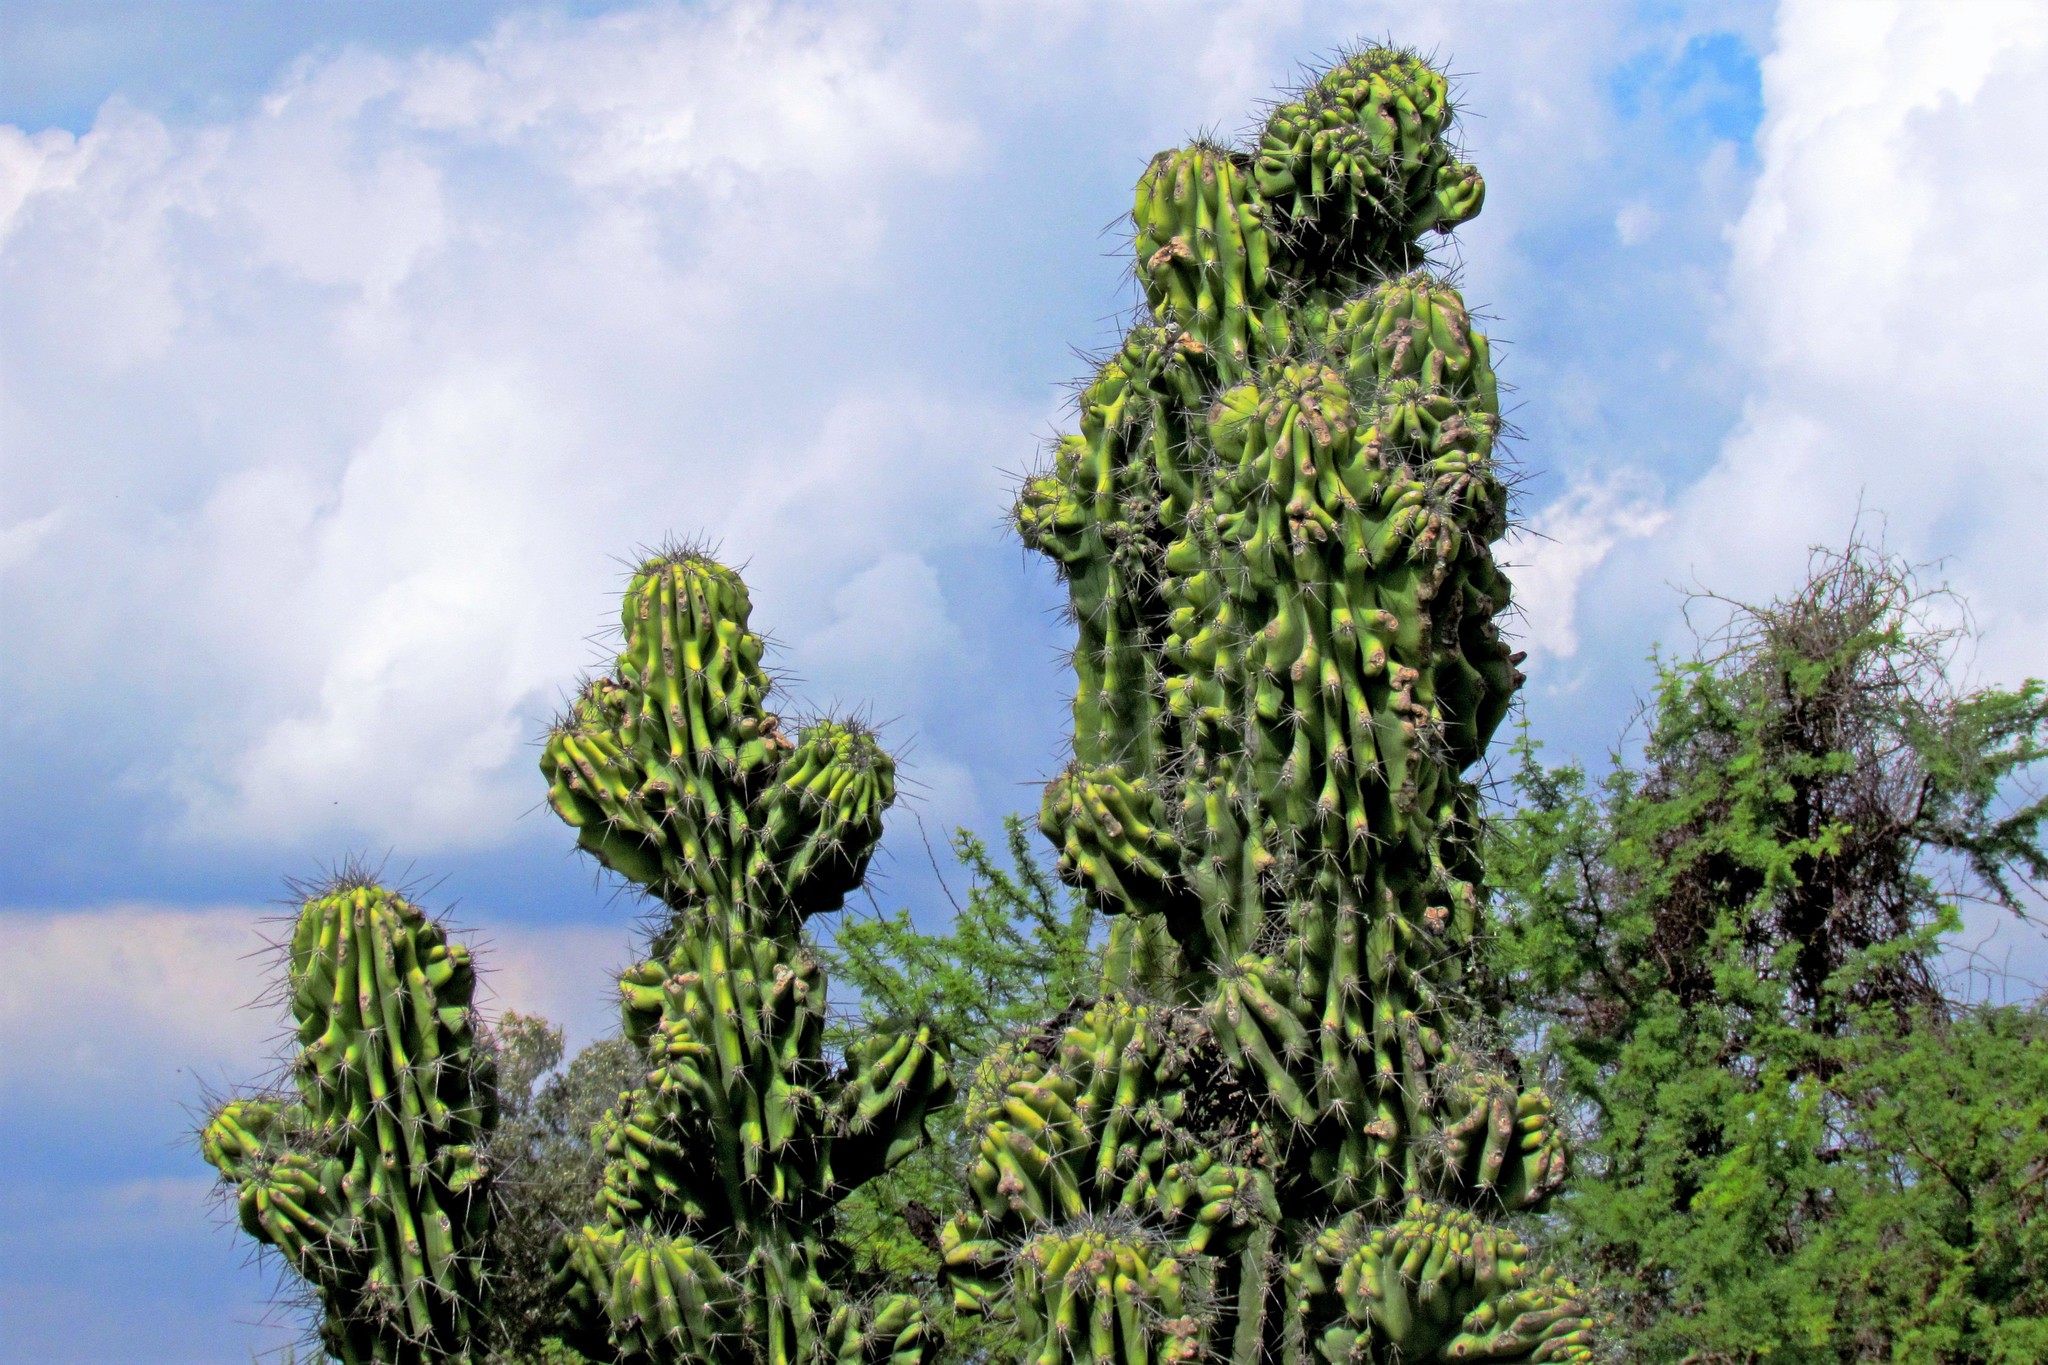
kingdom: Plantae
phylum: Tracheophyta
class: Magnoliopsida
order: Caryophyllales
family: Cactaceae
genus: Cereus
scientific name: Cereus hildmannianus
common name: Hedge cactus
